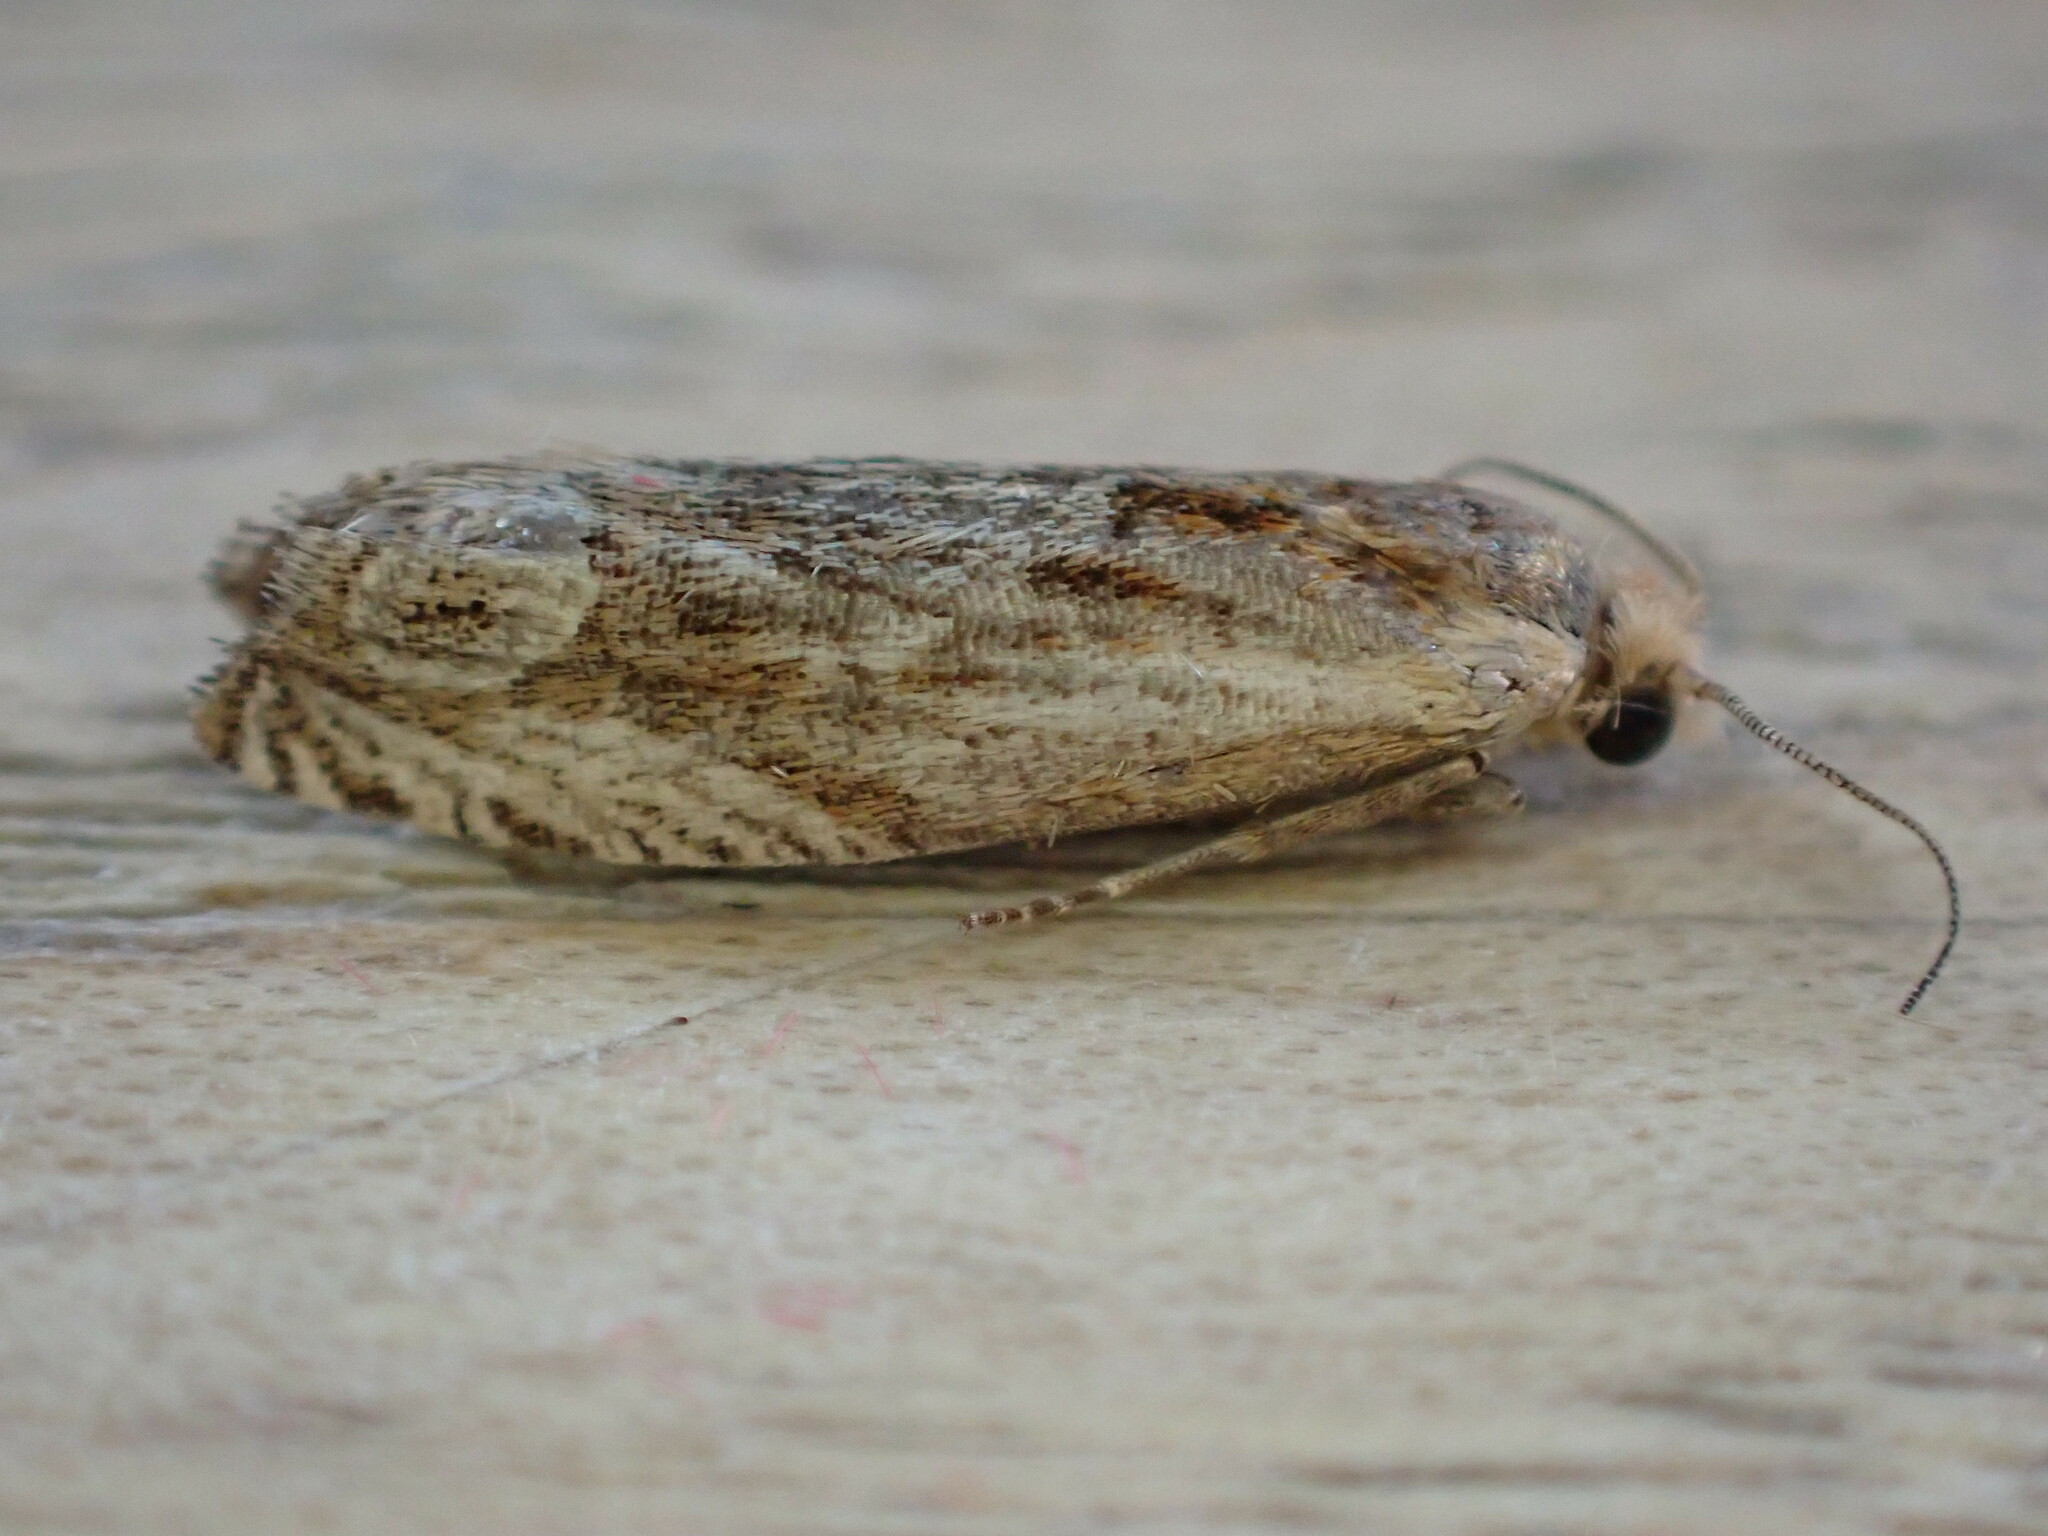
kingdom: Animalia
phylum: Arthropoda
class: Insecta
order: Lepidoptera
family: Tortricidae
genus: Eucosma
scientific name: Eucosma cana
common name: Hoary belle
